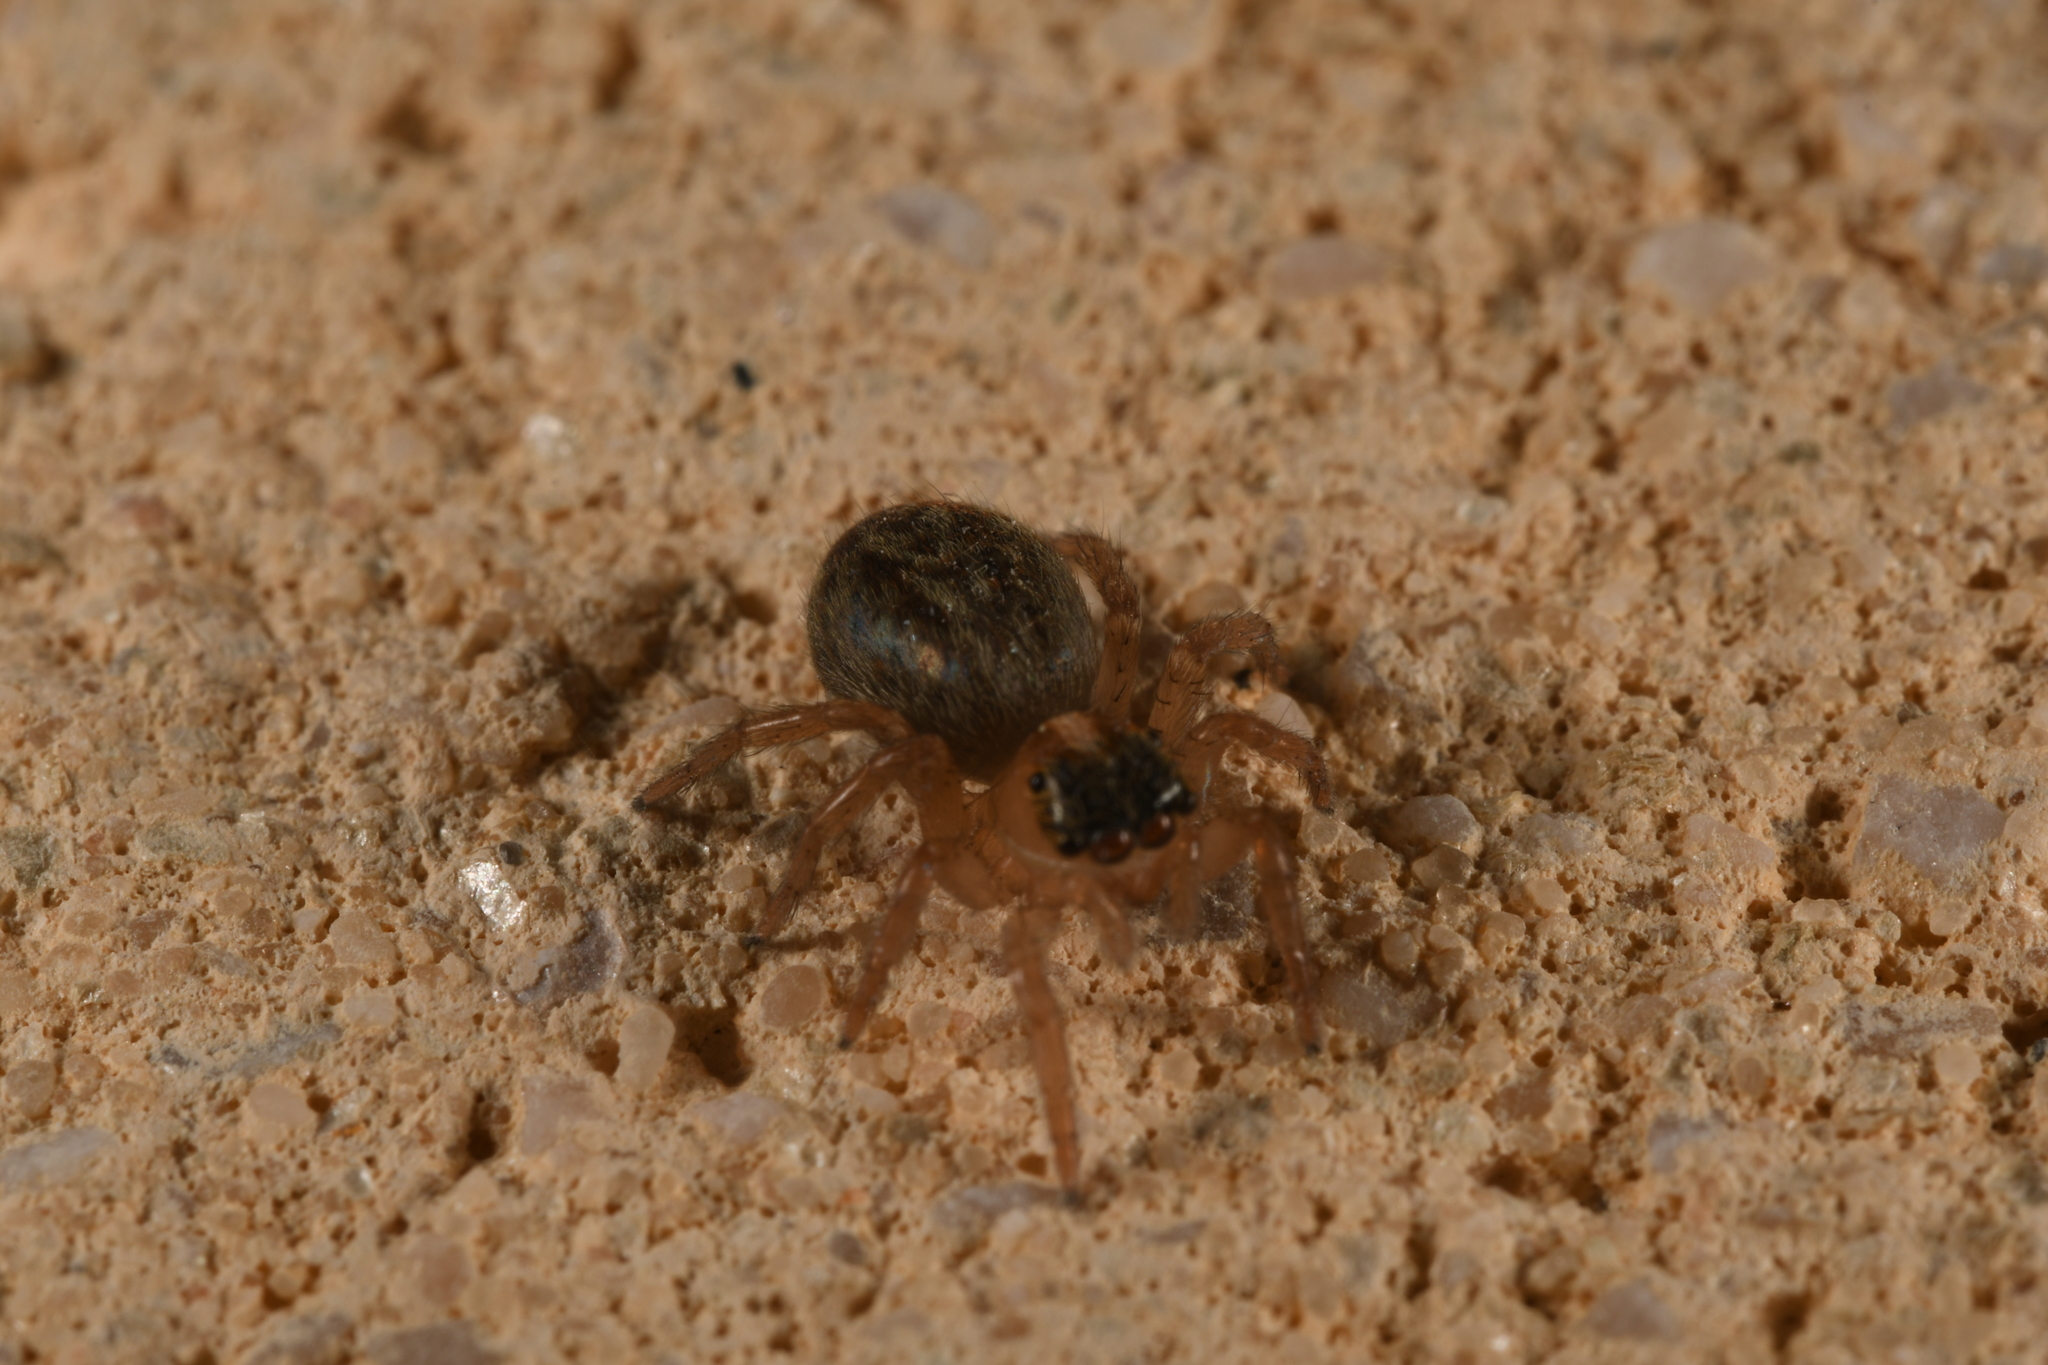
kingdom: Animalia
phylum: Arthropoda
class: Arachnida
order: Araneae
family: Salticidae
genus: Saitis
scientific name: Saitis barbipes
